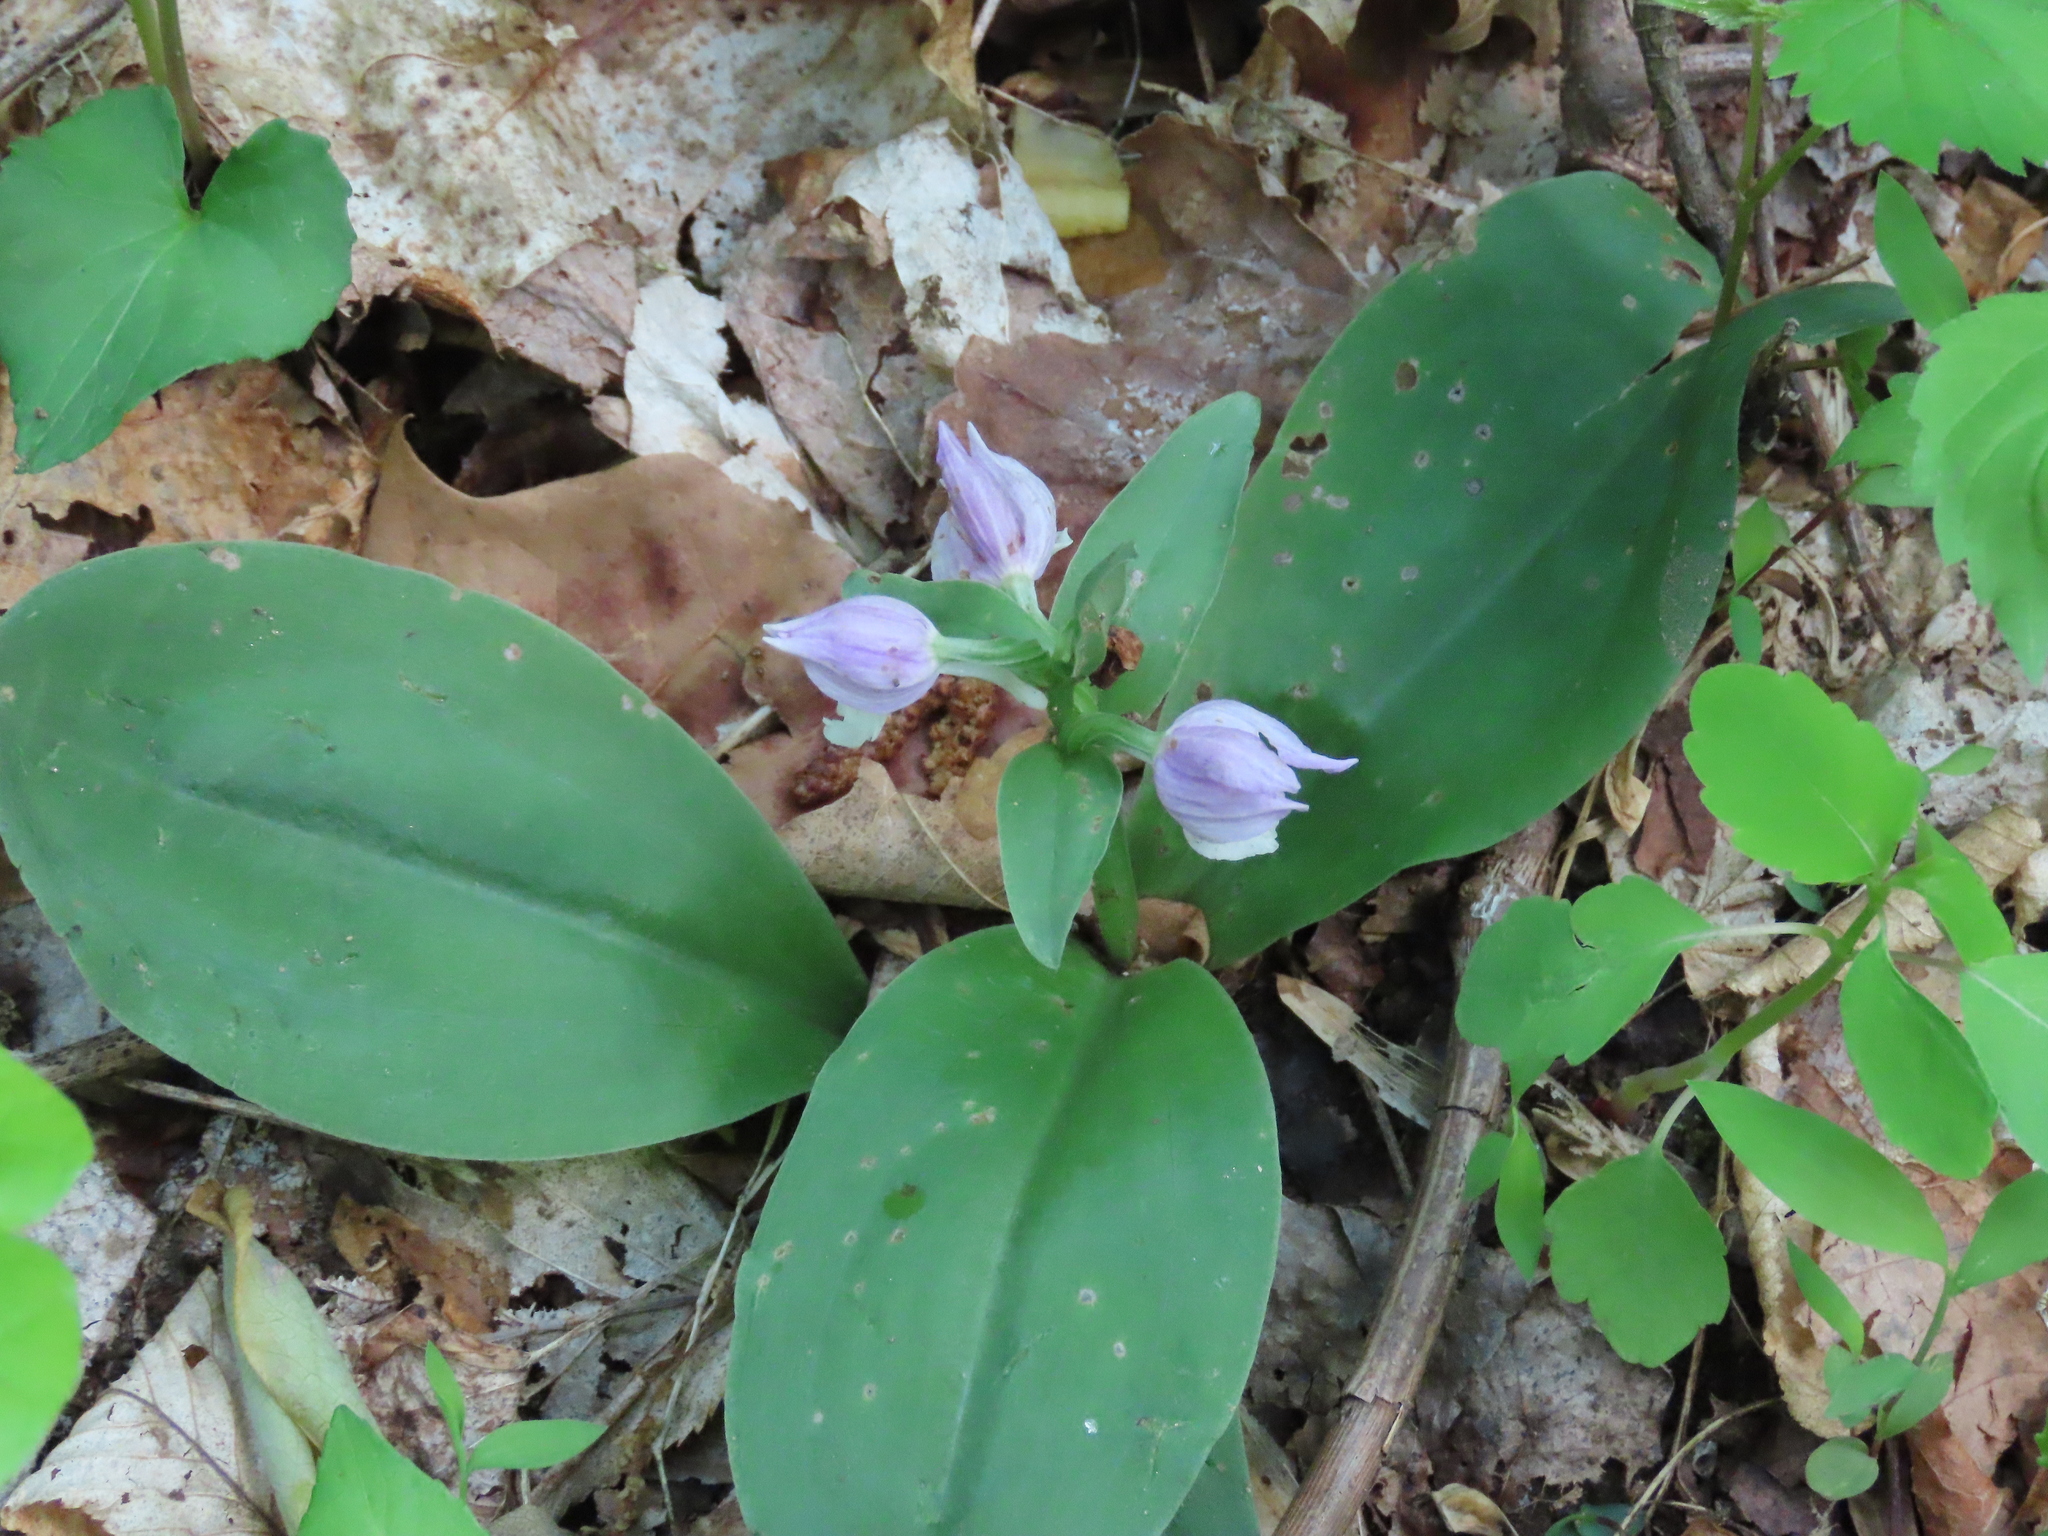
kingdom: Plantae
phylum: Tracheophyta
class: Liliopsida
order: Asparagales
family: Orchidaceae
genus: Galearis
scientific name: Galearis spectabilis
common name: Purple-hooded orchis
